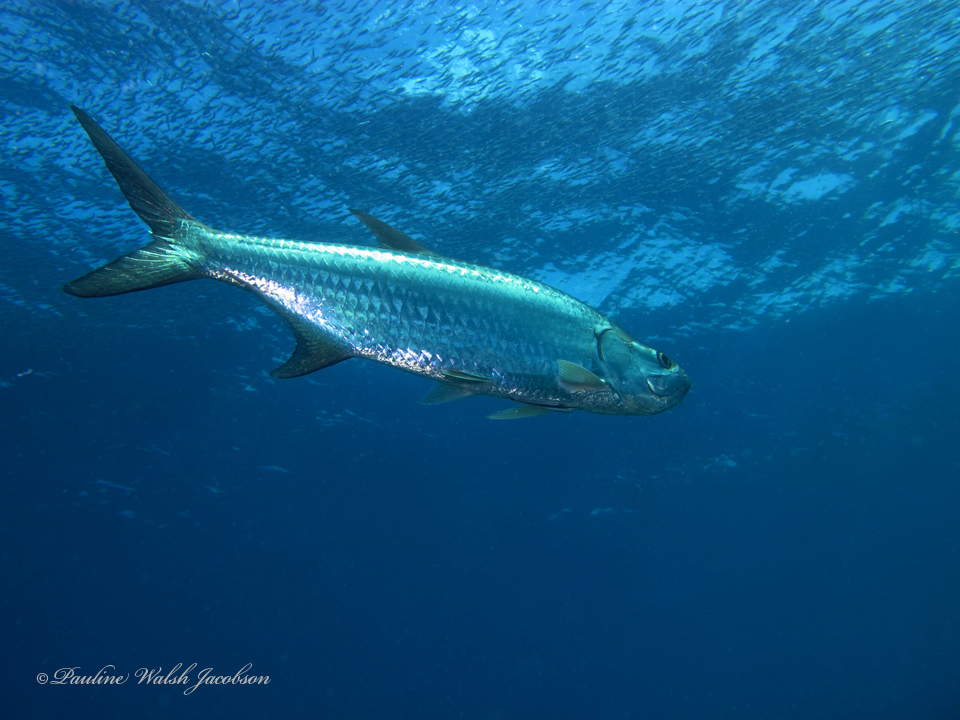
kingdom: Animalia
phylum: Chordata
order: Elopiformes
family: Megalopidae
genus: Megalops
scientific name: Megalops atlanticus
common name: Tarpon
